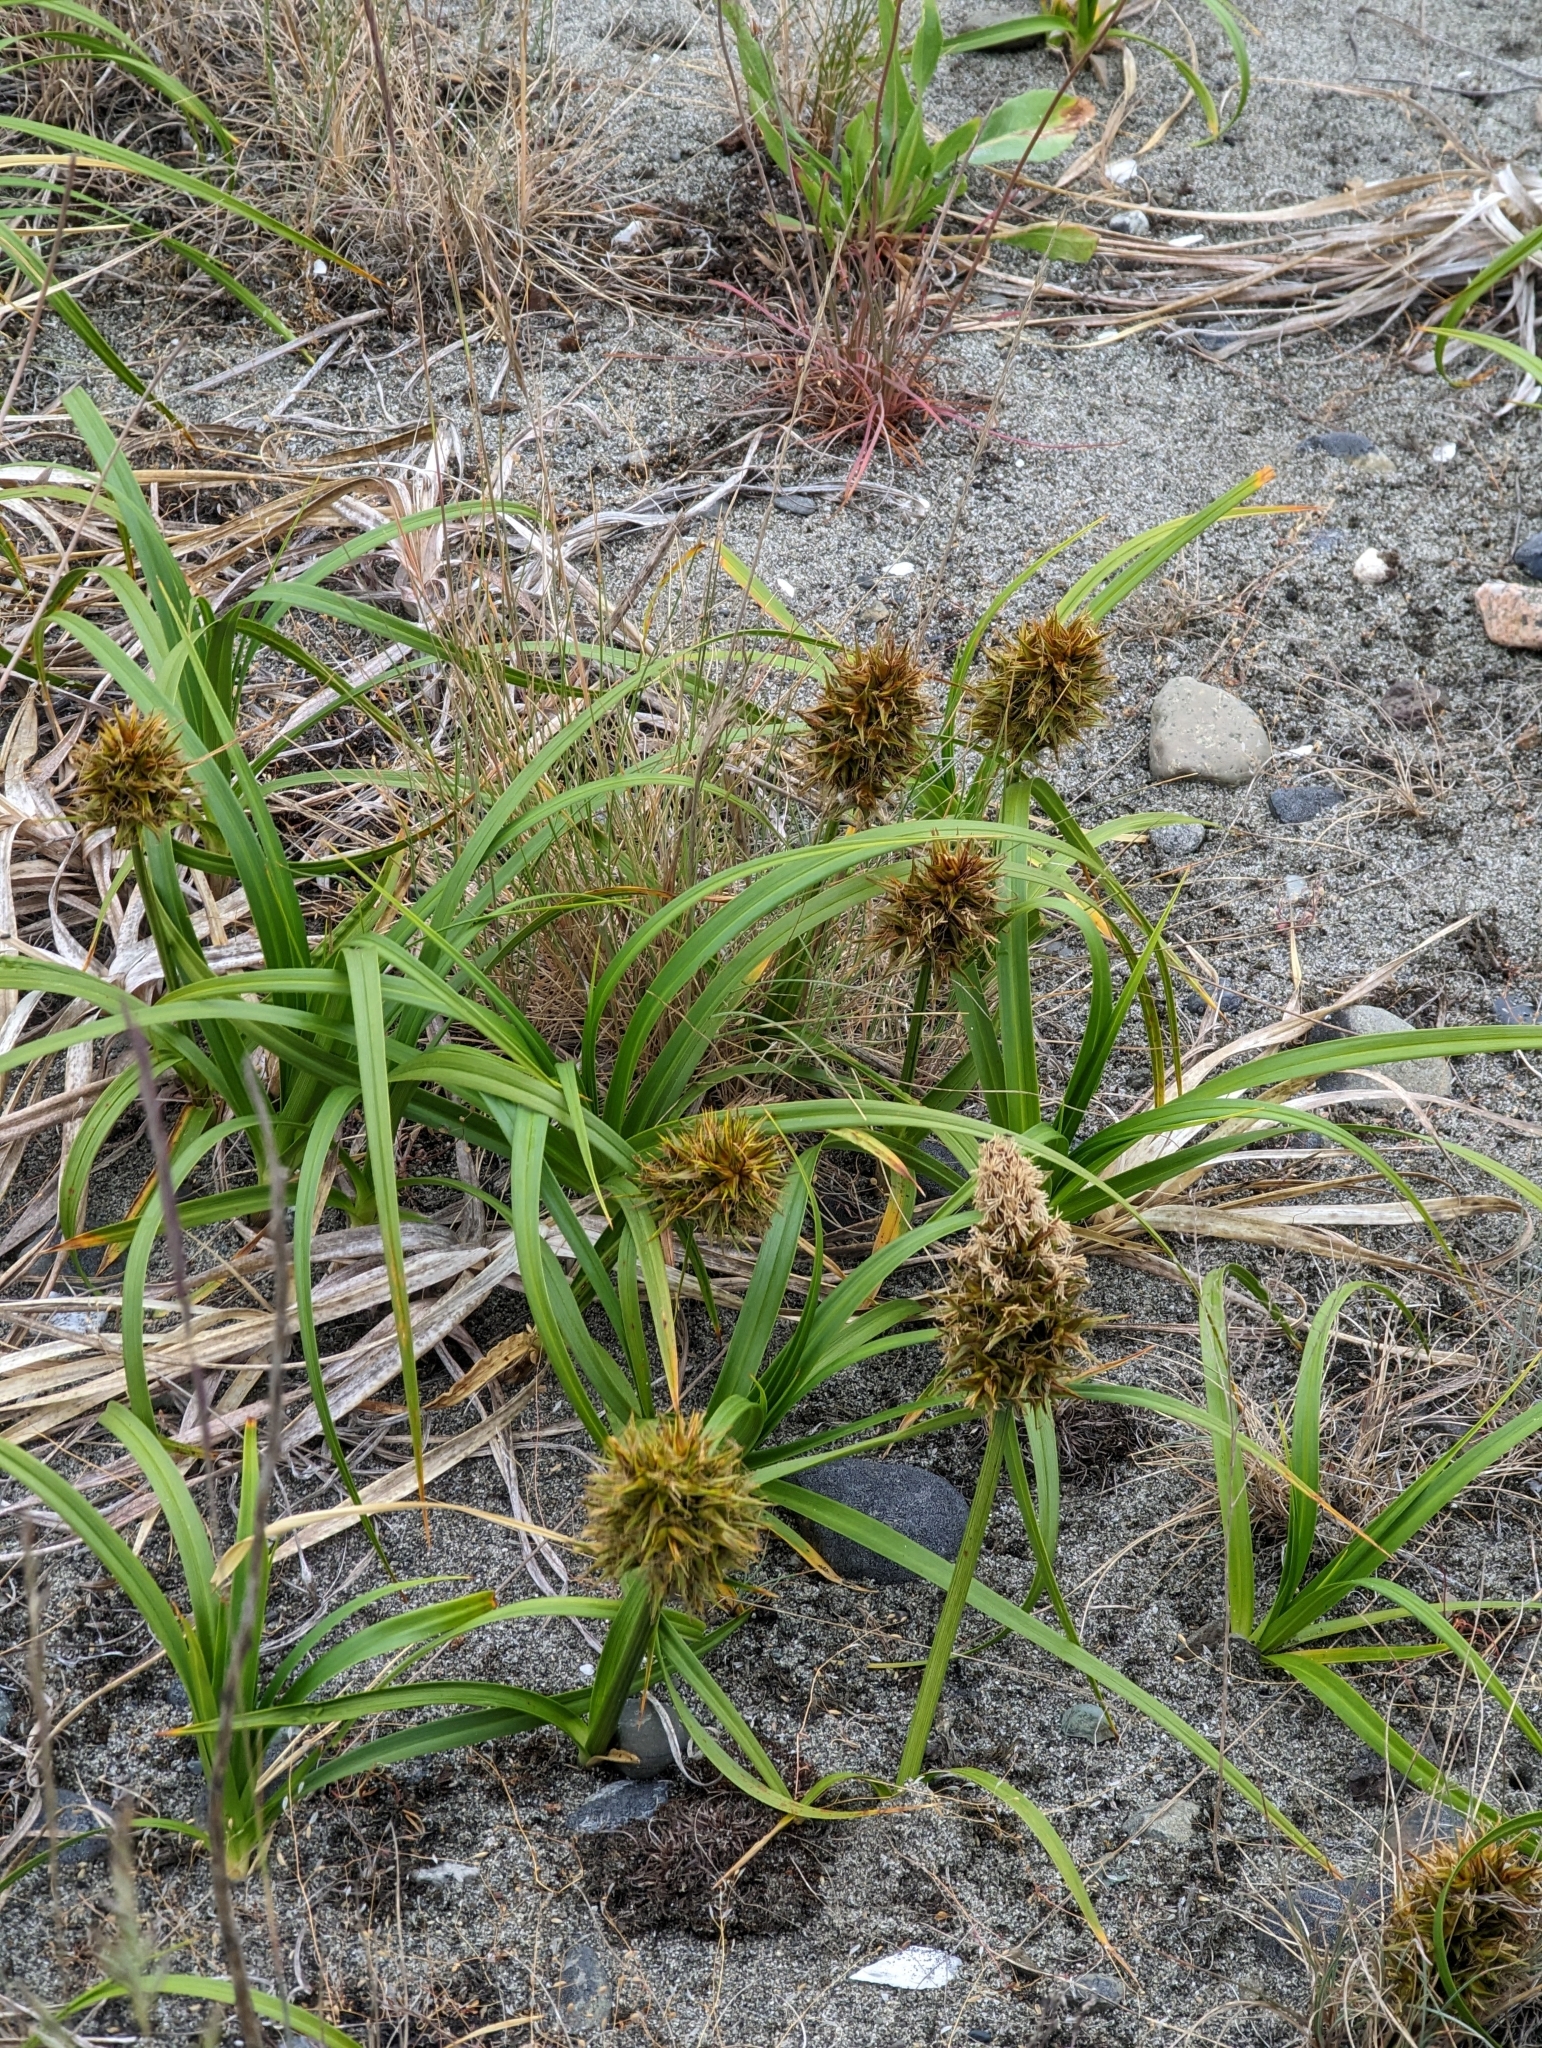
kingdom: Plantae
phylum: Tracheophyta
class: Liliopsida
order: Poales
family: Cyperaceae
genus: Carex
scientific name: Carex macrocephala
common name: Large-head sedge
